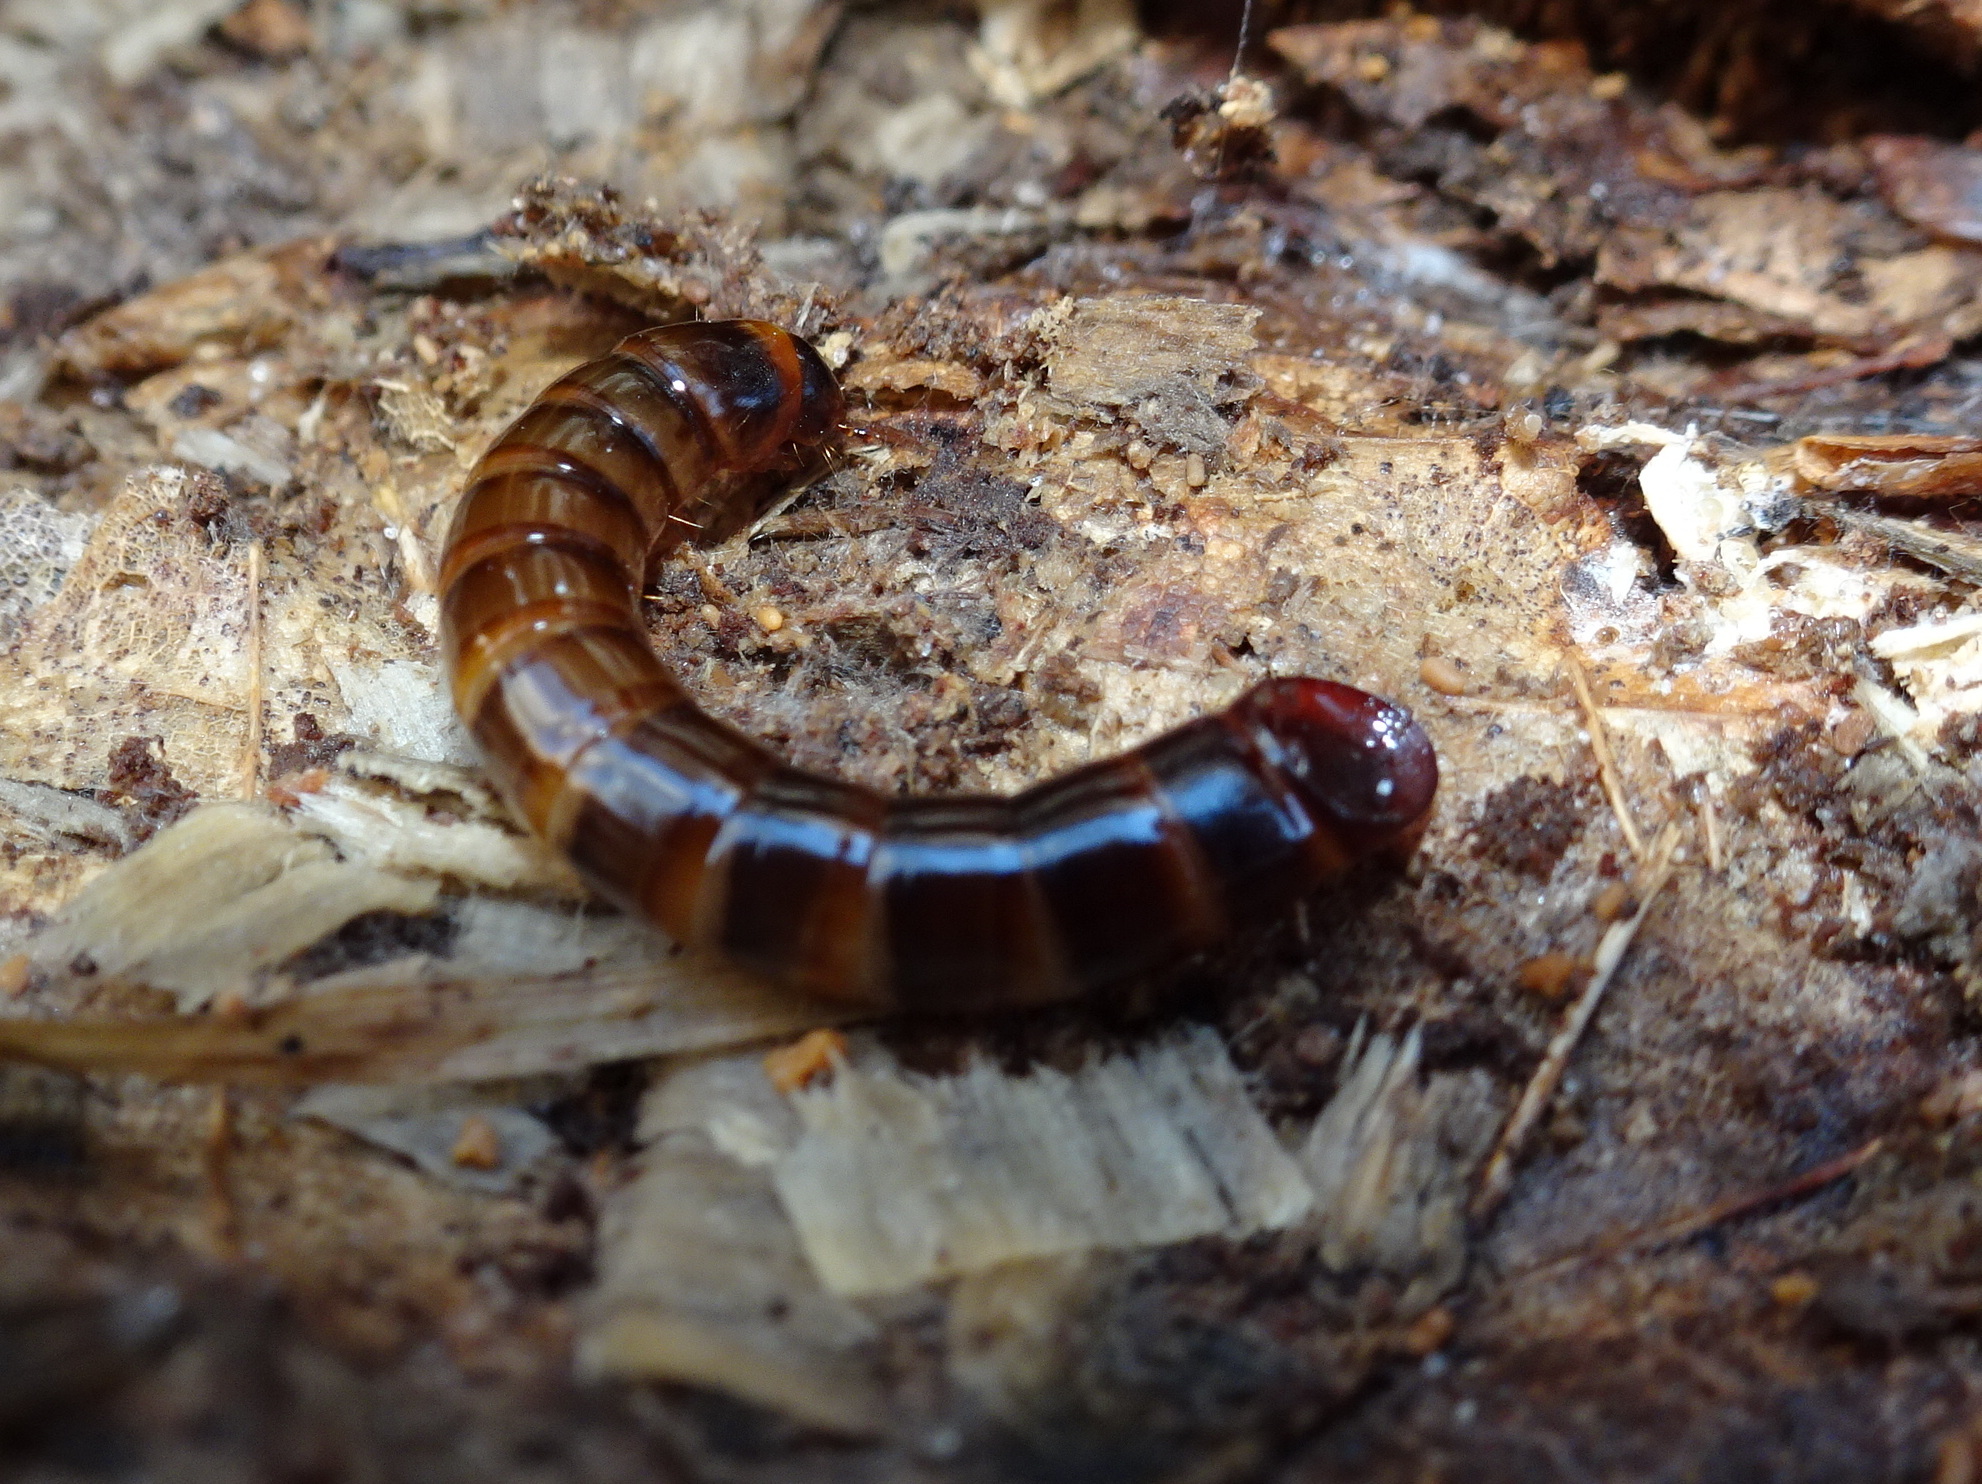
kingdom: Animalia
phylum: Arthropoda
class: Insecta
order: Coleoptera
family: Tenebrionidae
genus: Meracantha
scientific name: Meracantha contracta
